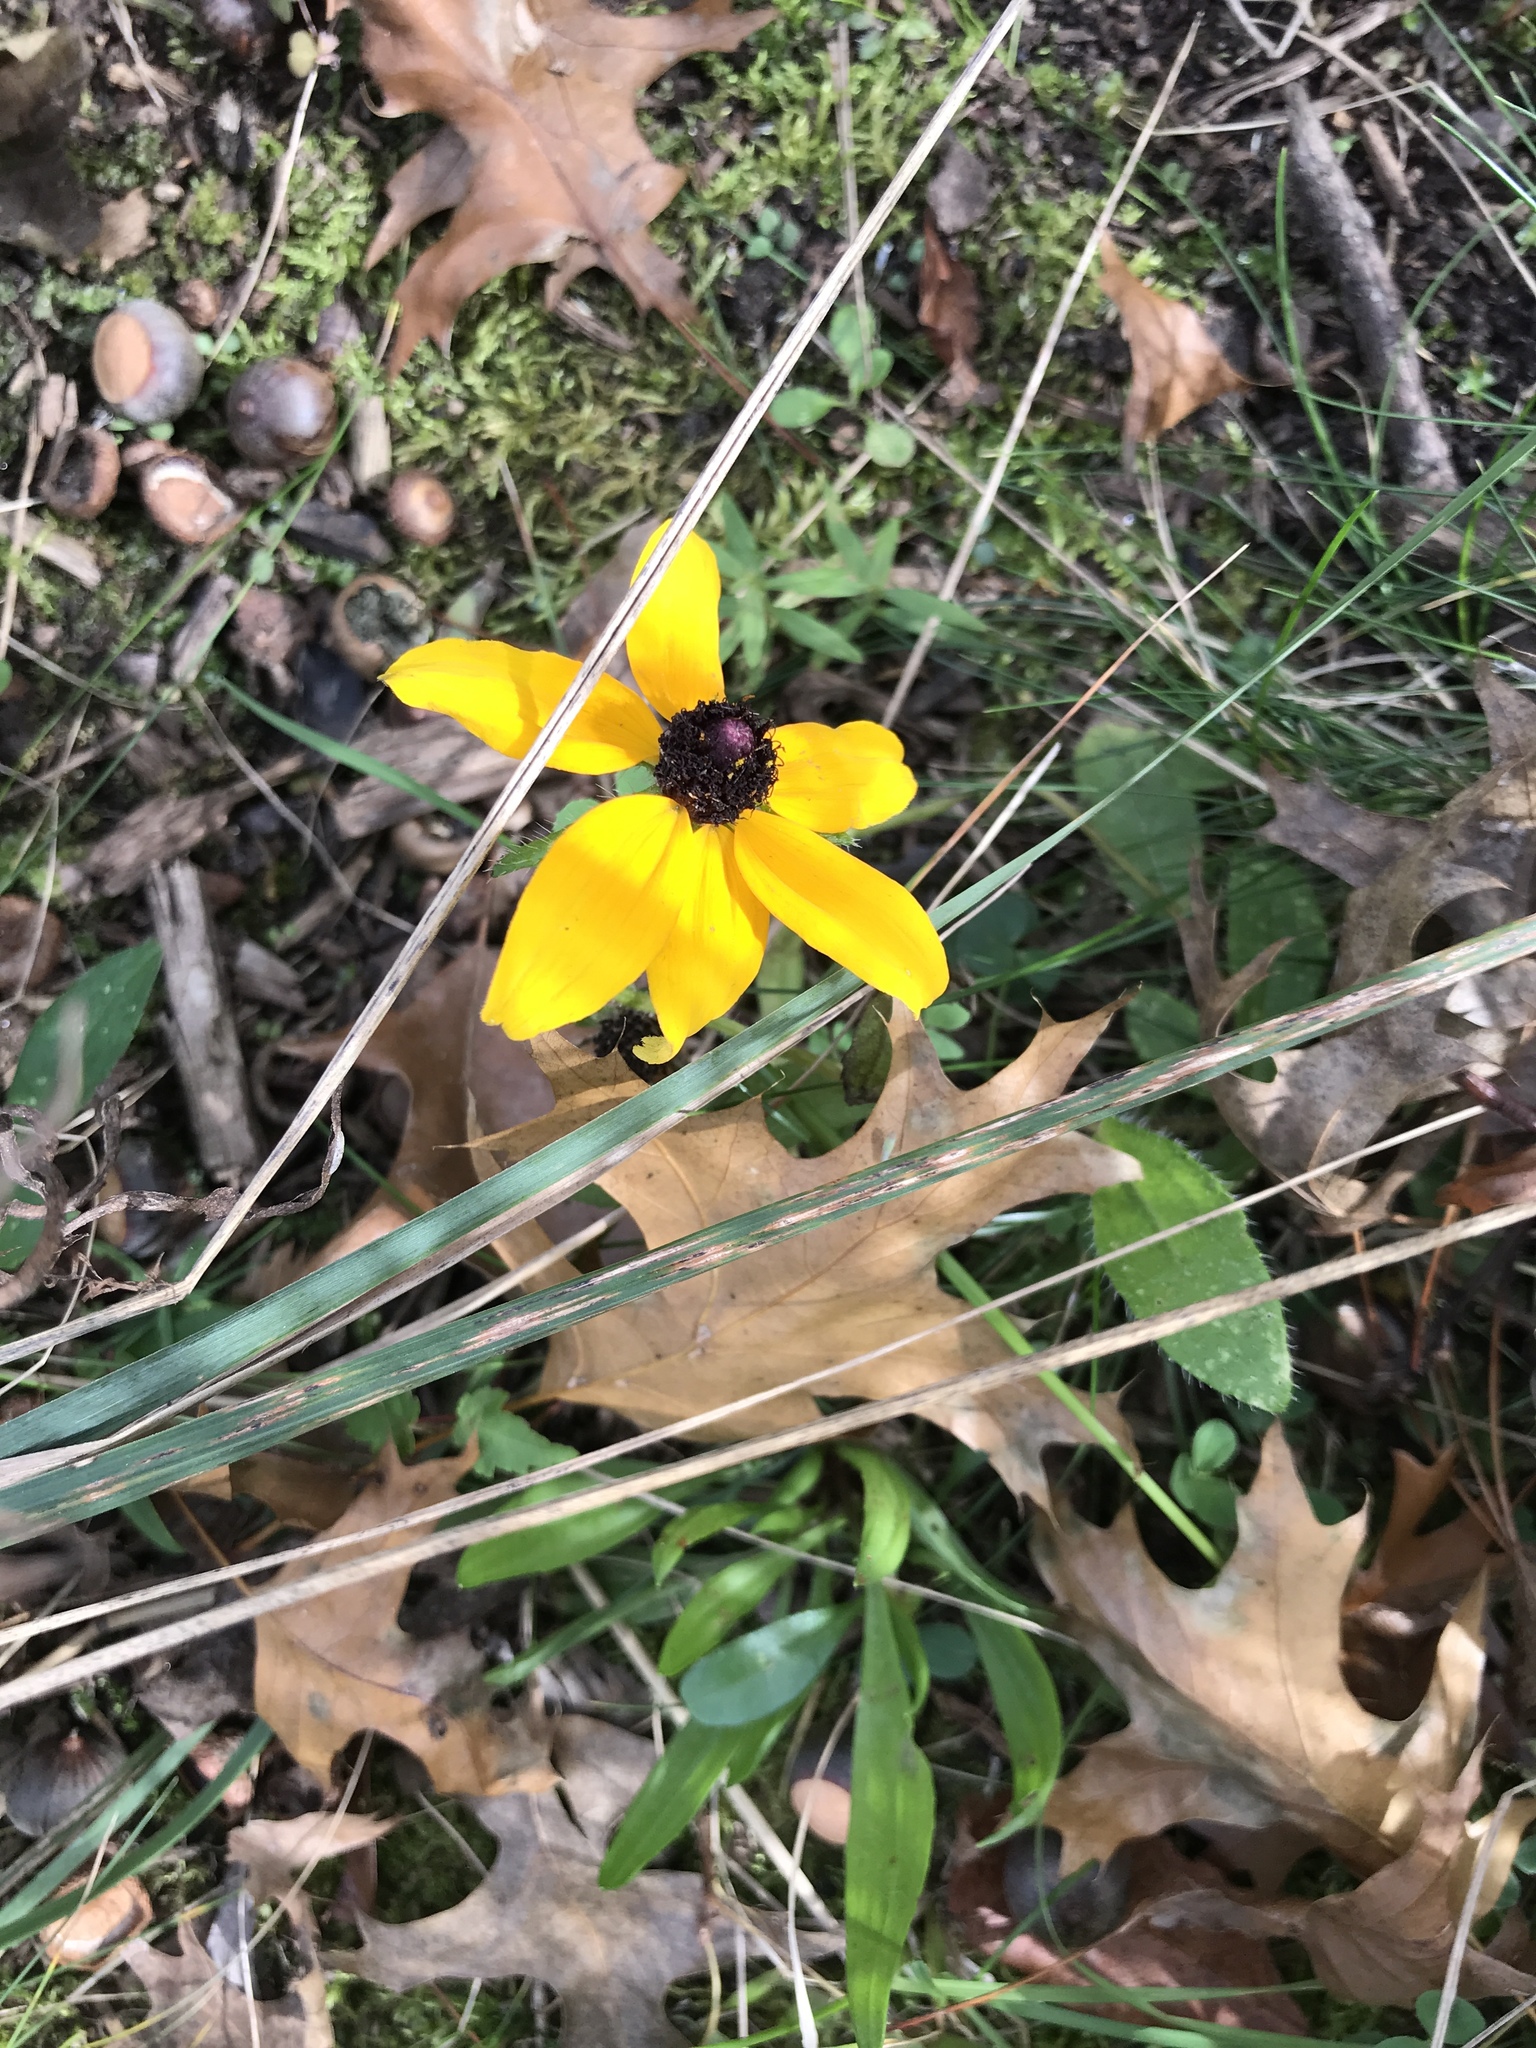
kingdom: Plantae
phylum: Tracheophyta
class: Magnoliopsida
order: Asterales
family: Asteraceae
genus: Rudbeckia
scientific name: Rudbeckia hirta
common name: Black-eyed-susan
